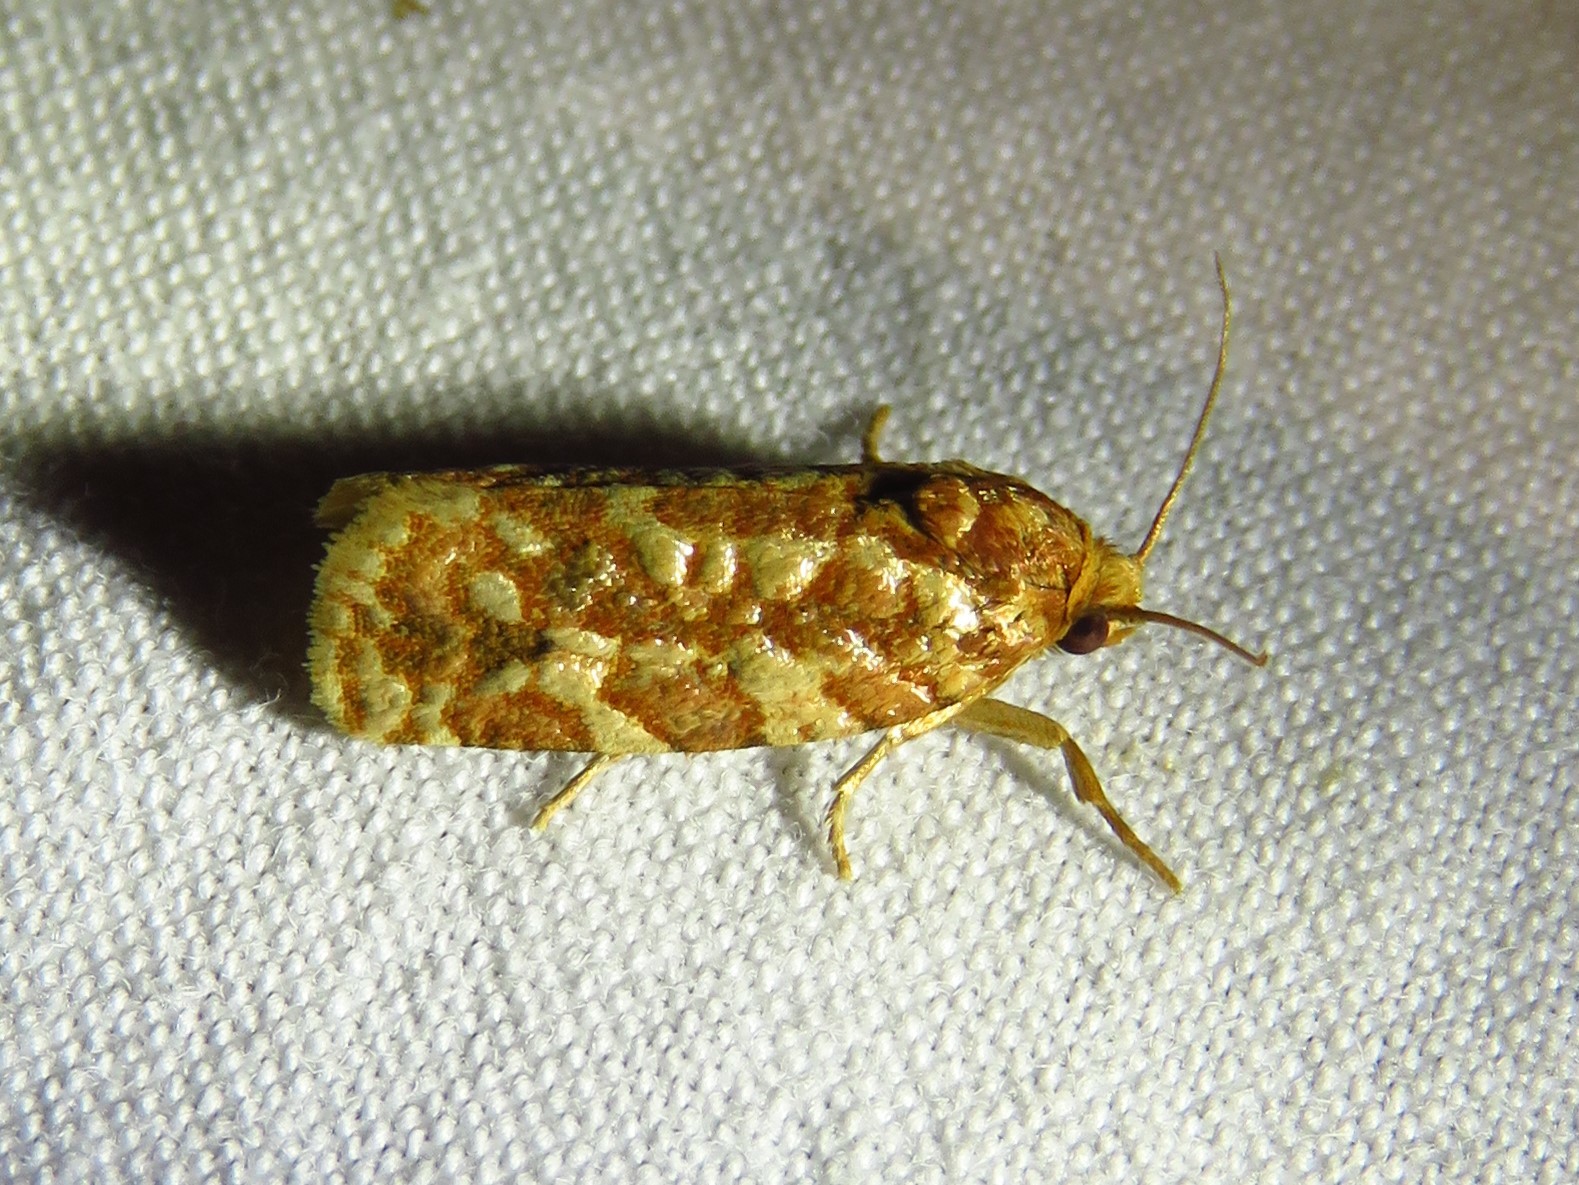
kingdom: Animalia
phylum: Arthropoda
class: Insecta
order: Lepidoptera
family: Tortricidae
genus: Choristoneura
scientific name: Choristoneura houstonana
